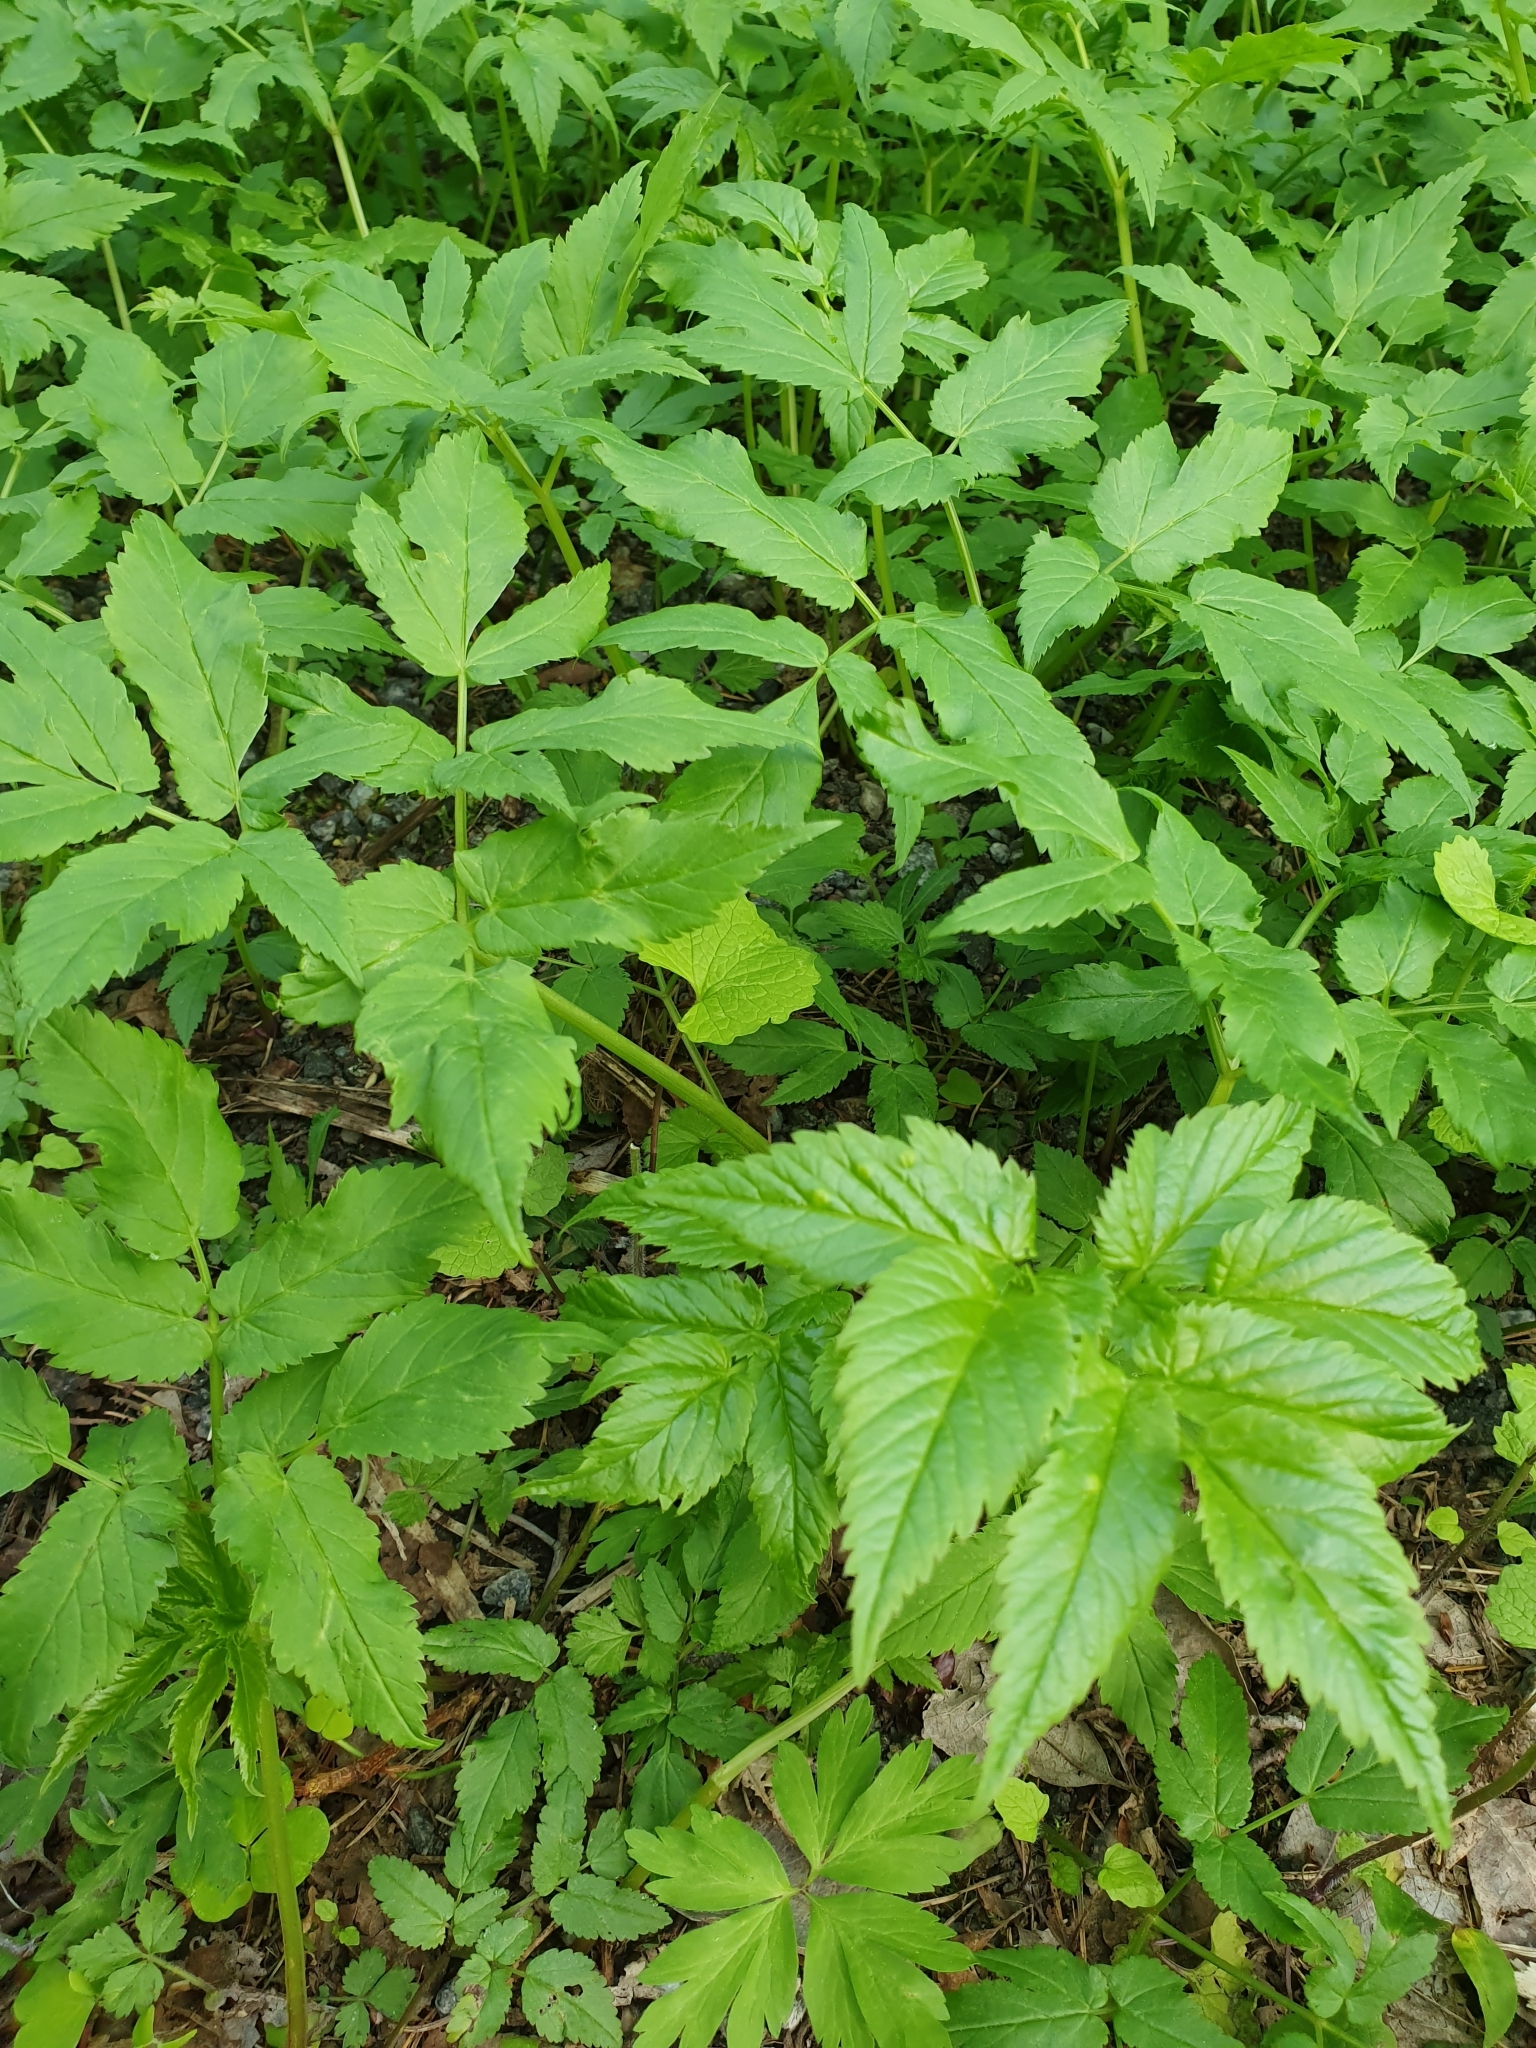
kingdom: Plantae
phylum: Tracheophyta
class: Magnoliopsida
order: Apiales
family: Apiaceae
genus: Aegopodium
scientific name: Aegopodium podagraria
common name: Ground-elder
